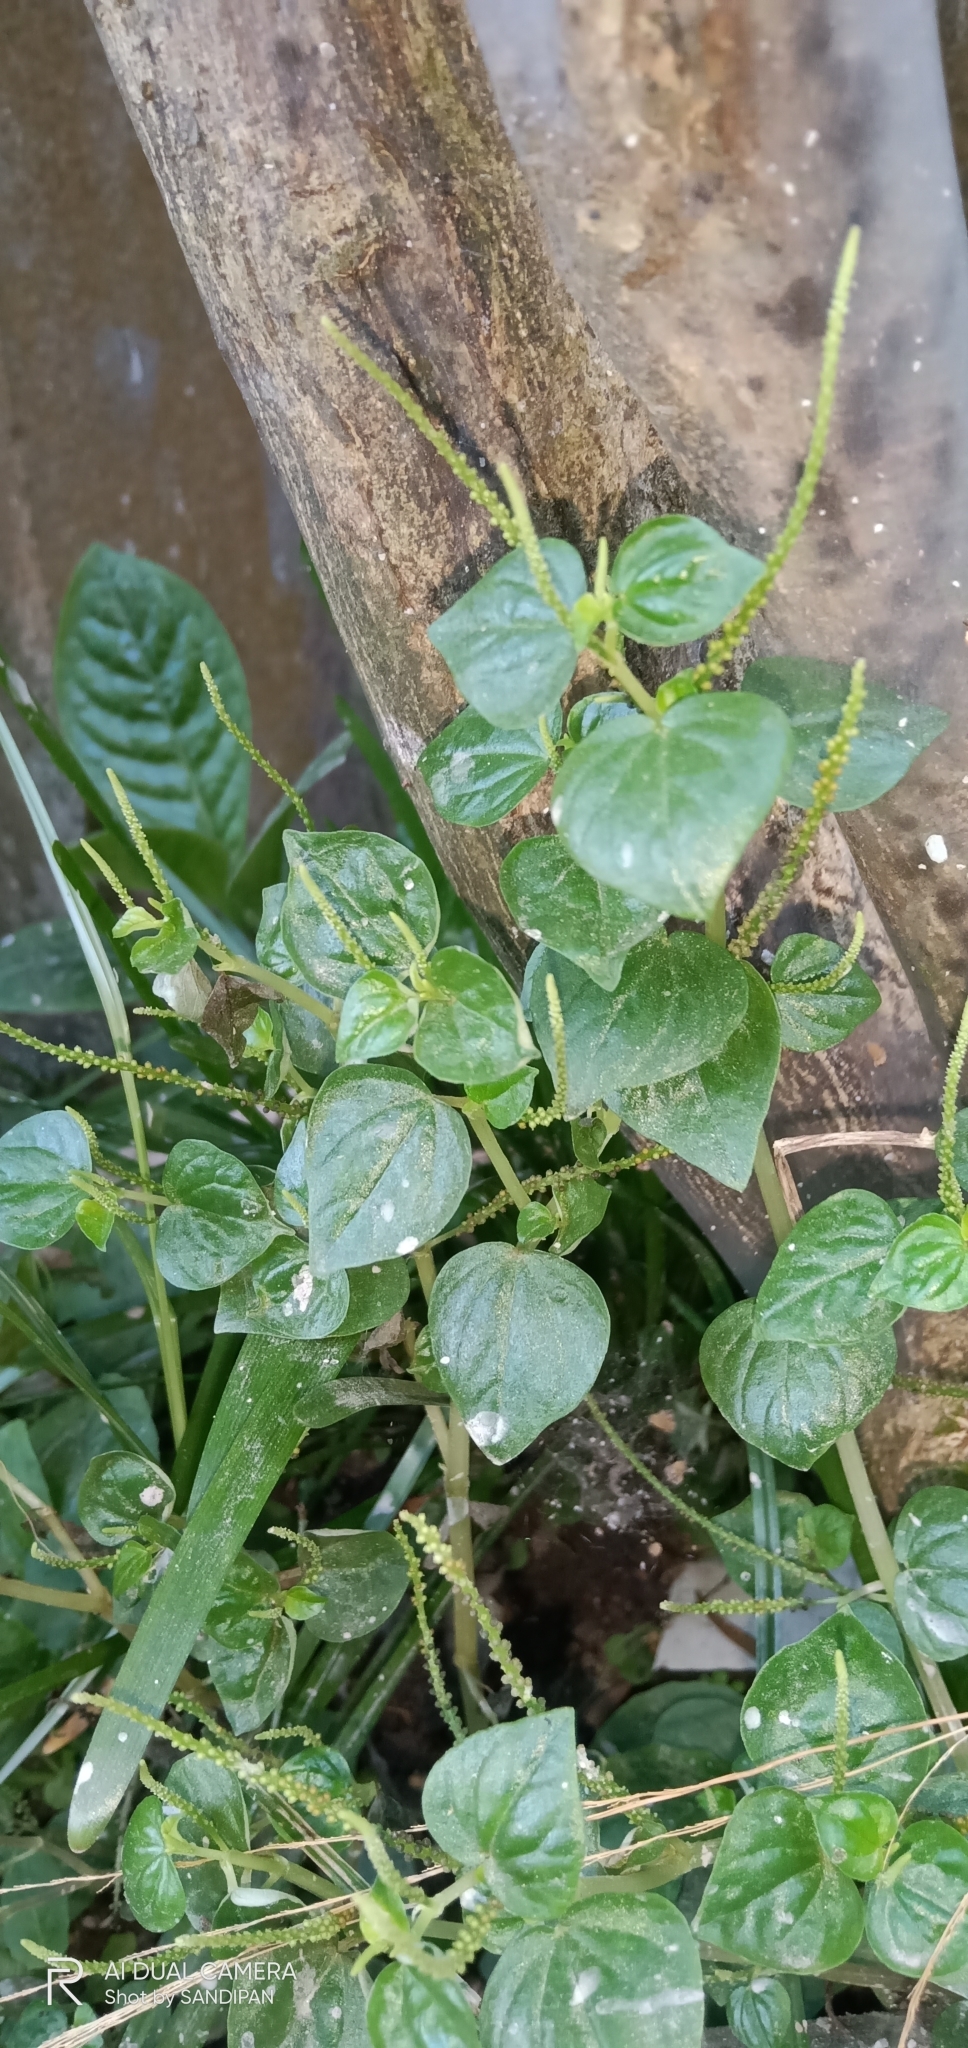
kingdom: Plantae
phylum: Tracheophyta
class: Magnoliopsida
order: Piperales
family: Piperaceae
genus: Peperomia
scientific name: Peperomia pellucida
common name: Man to man
